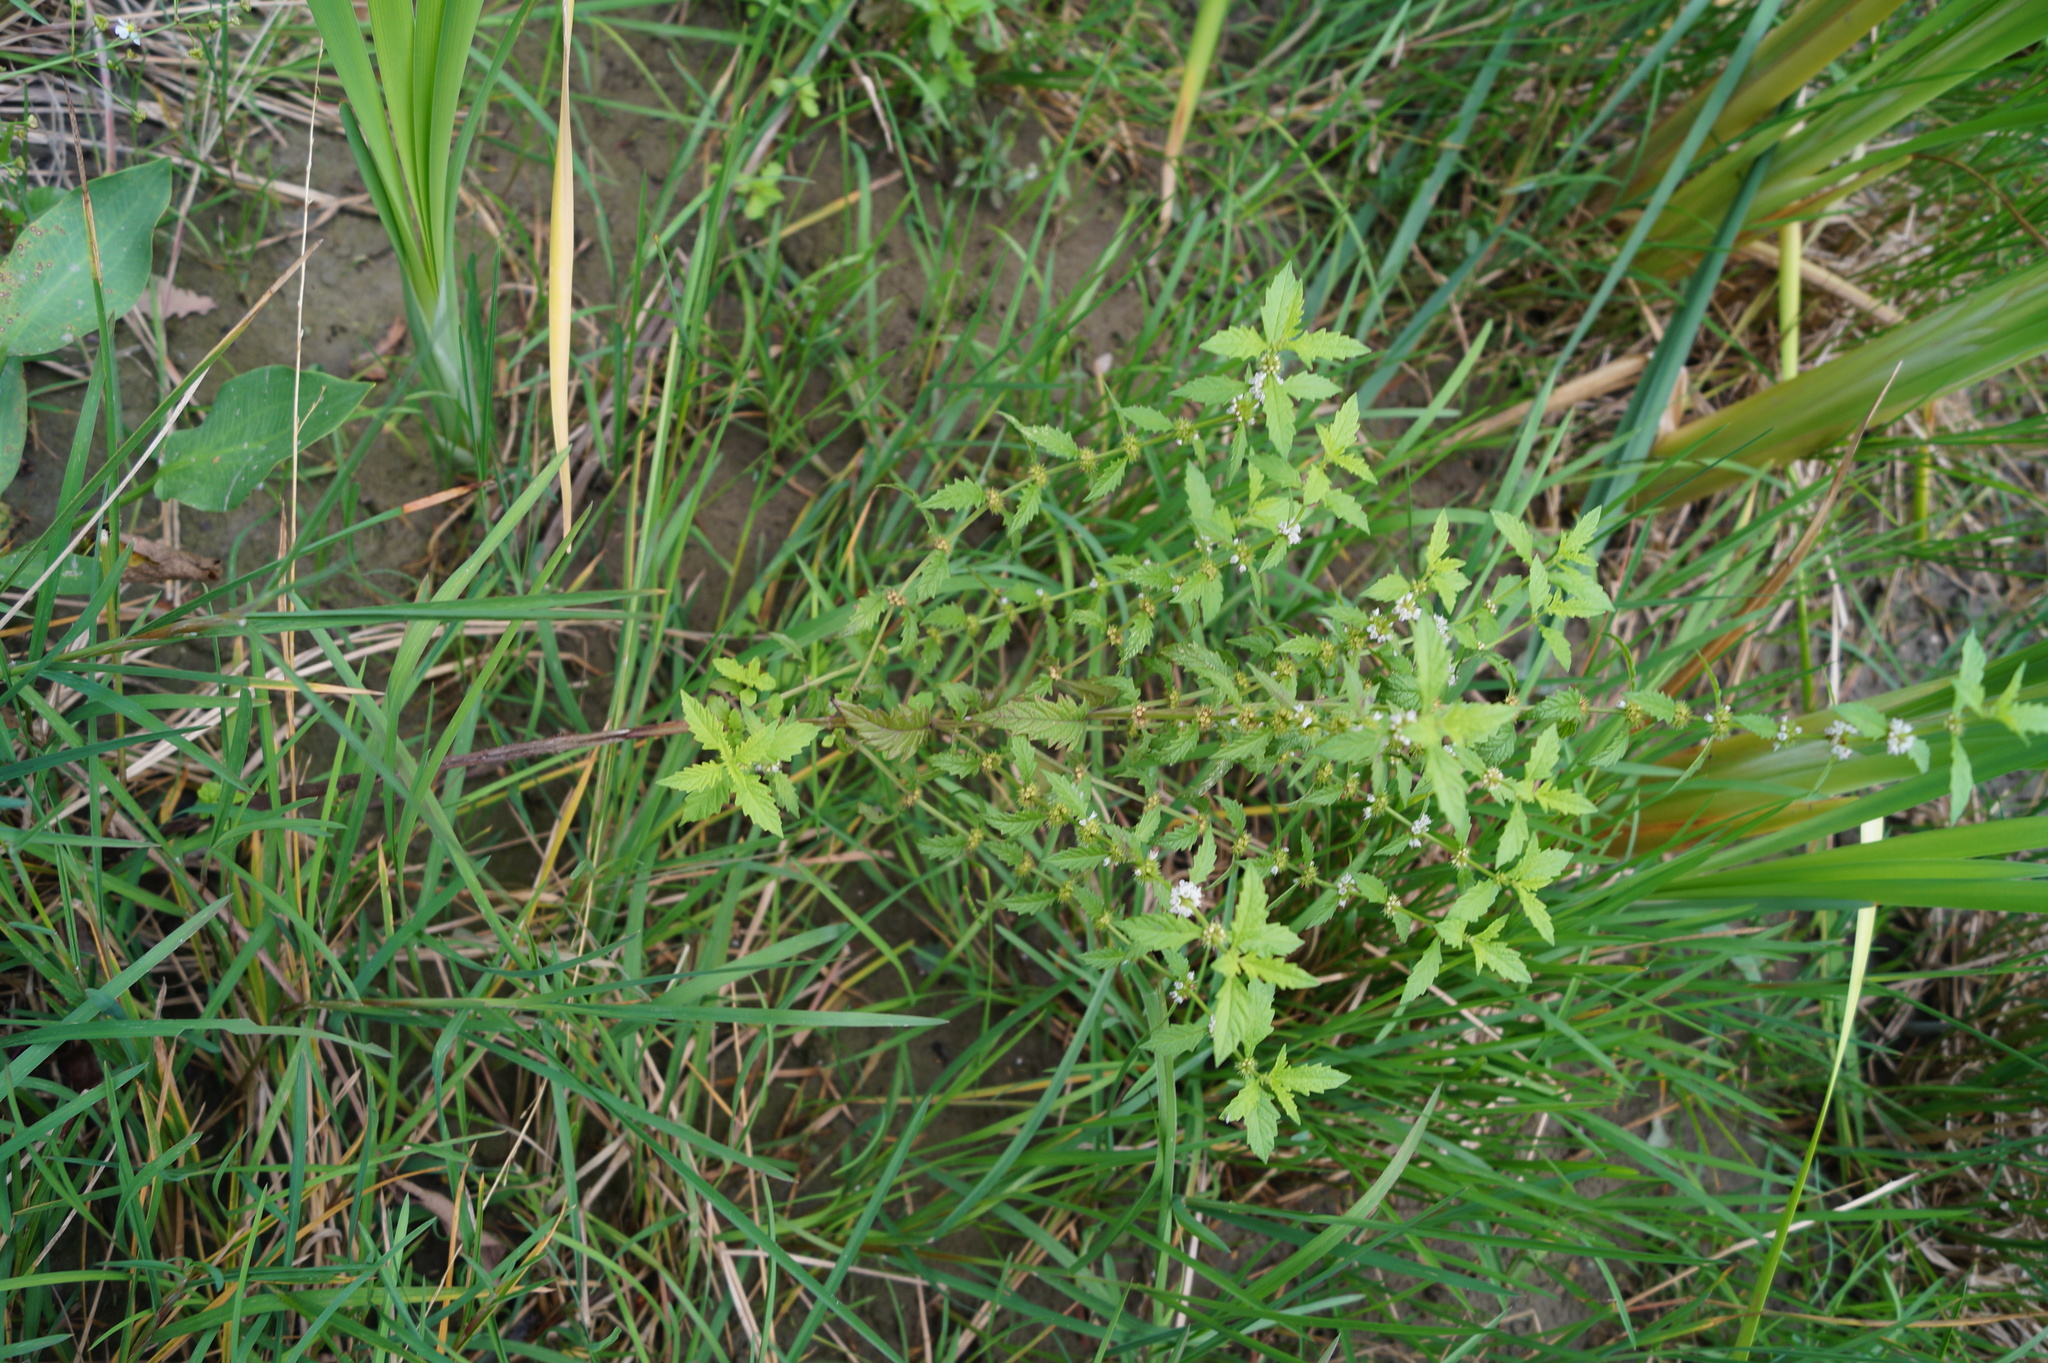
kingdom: Plantae
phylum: Tracheophyta
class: Magnoliopsida
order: Lamiales
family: Lamiaceae
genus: Lycopus
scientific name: Lycopus europaeus
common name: European bugleweed
